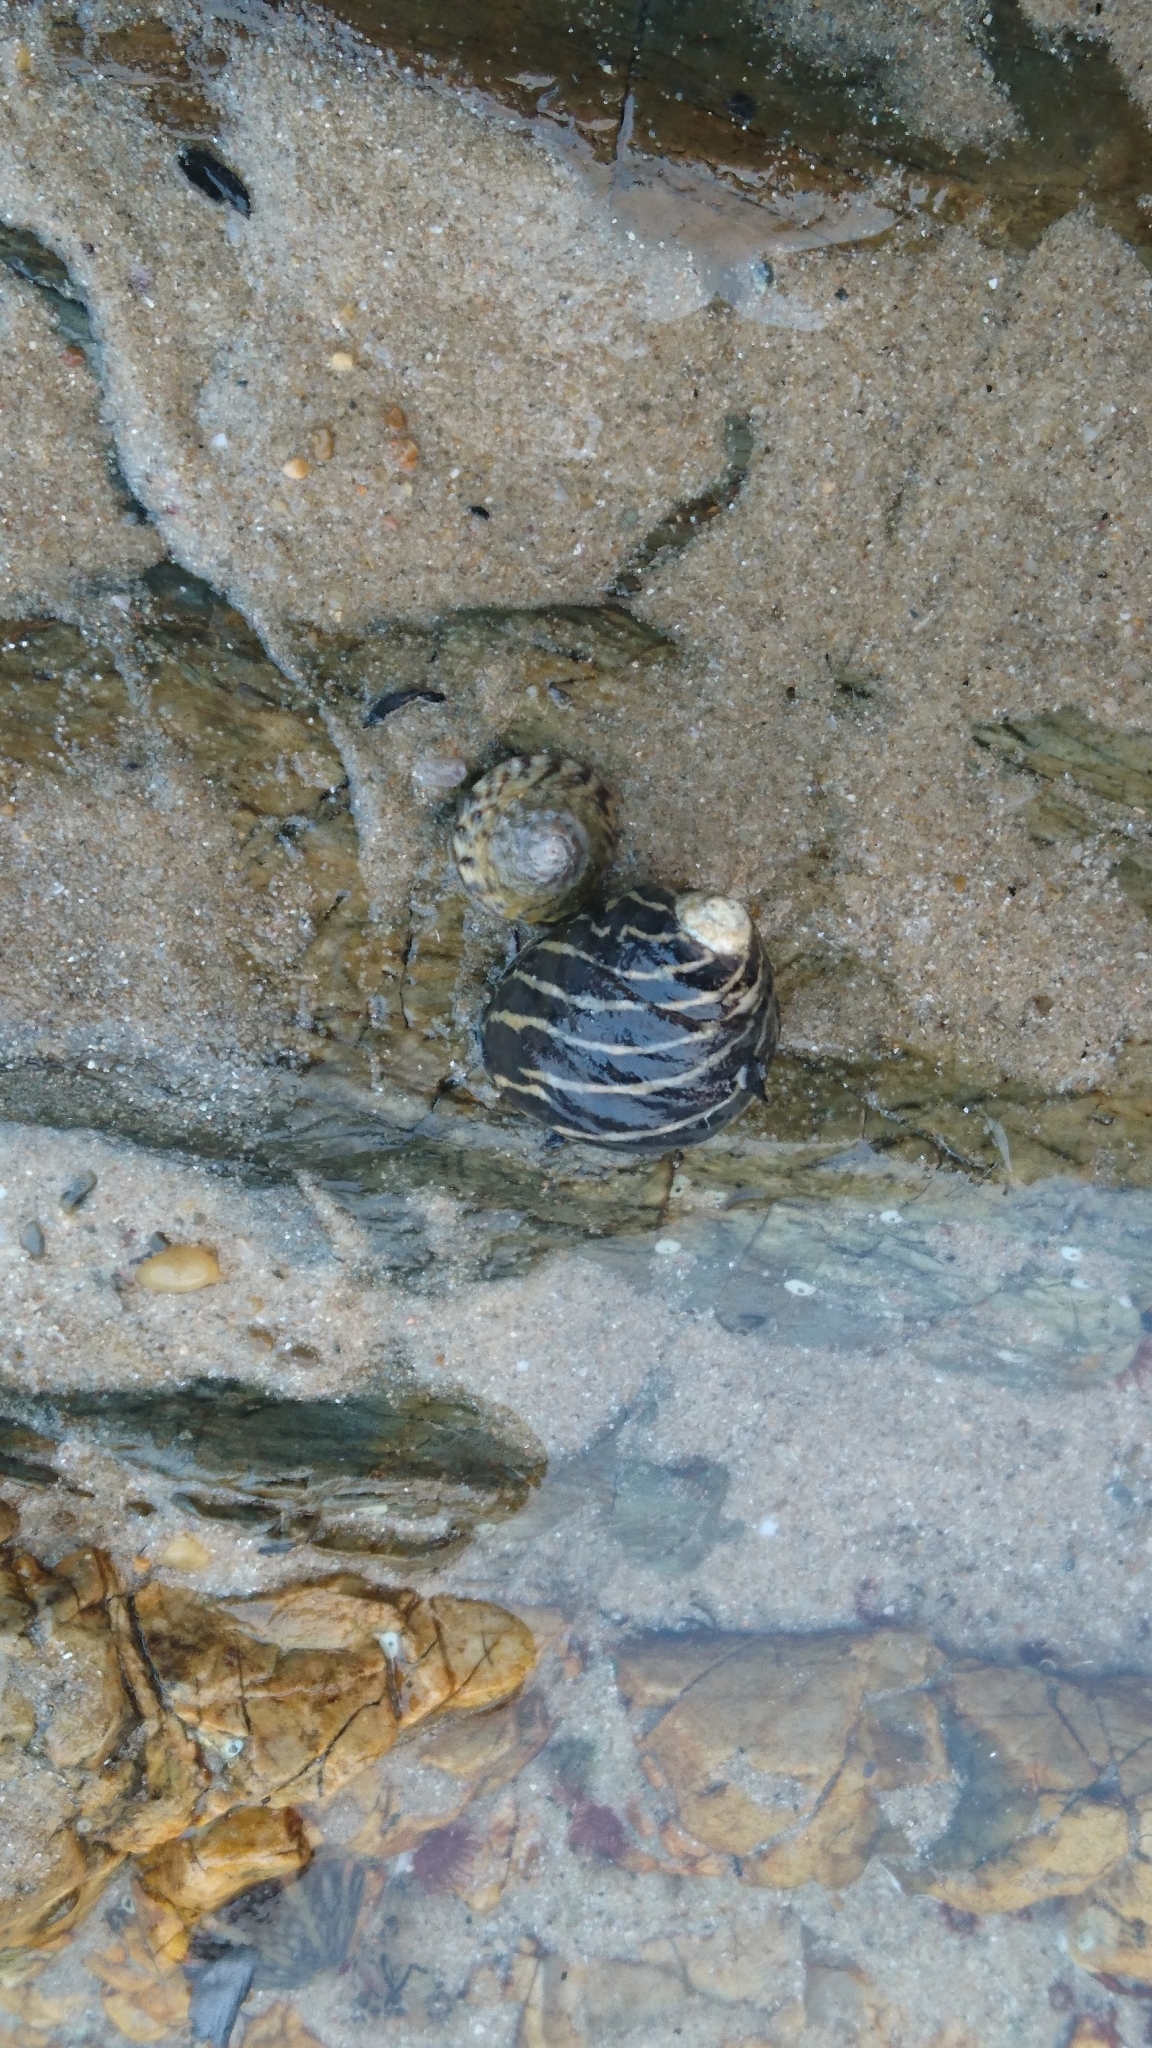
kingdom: Animalia
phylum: Mollusca
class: Gastropoda
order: Trochida
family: Trochidae
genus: Austrocochlea
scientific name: Austrocochlea porcata
